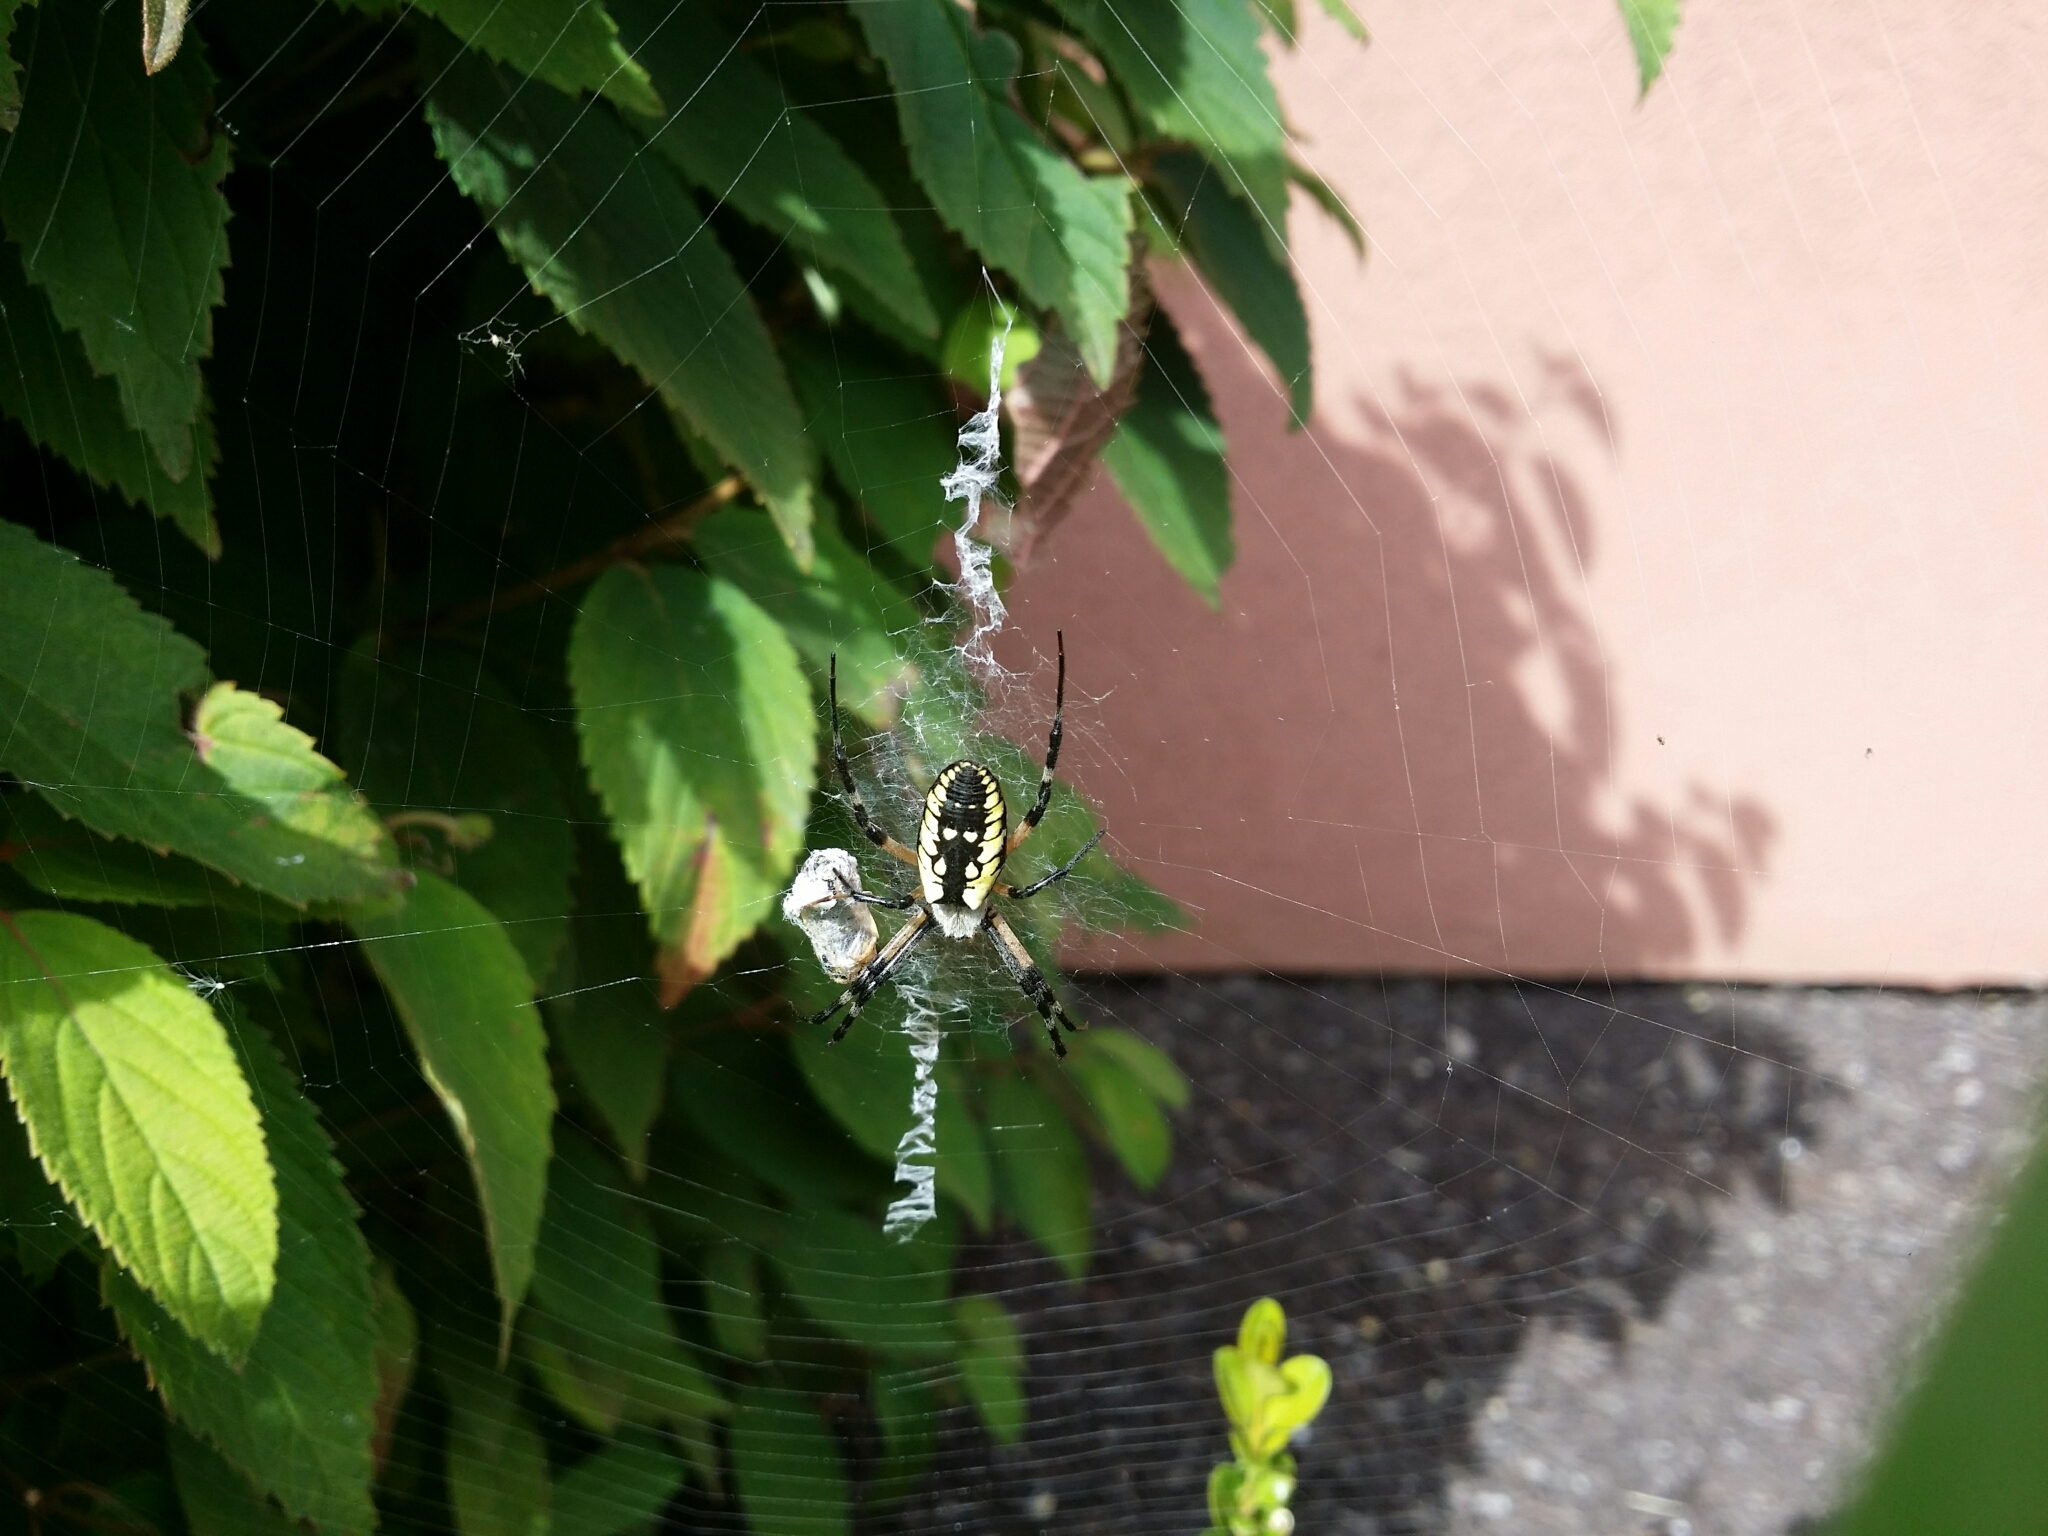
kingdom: Animalia
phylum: Arthropoda
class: Arachnida
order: Araneae
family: Araneidae
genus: Argiope
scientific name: Argiope aurantia
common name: Orb weavers
